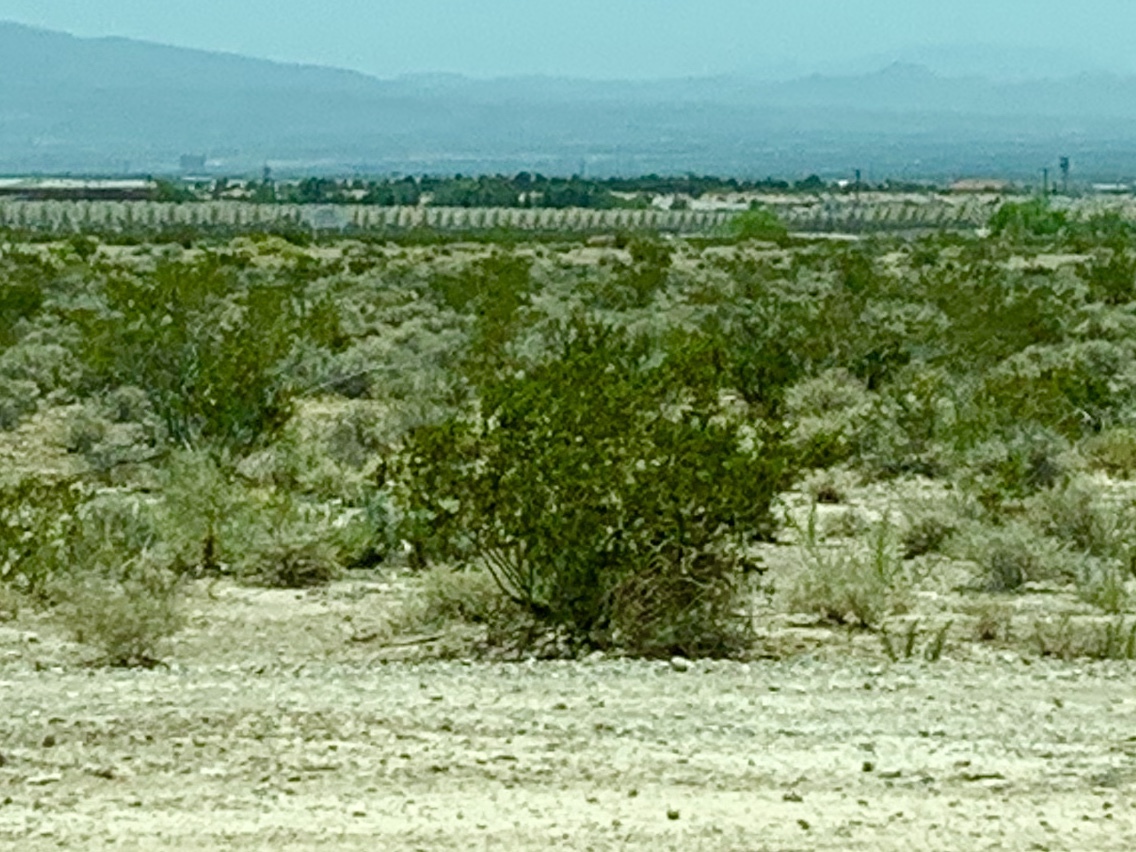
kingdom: Plantae
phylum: Tracheophyta
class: Magnoliopsida
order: Zygophyllales
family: Zygophyllaceae
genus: Larrea
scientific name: Larrea tridentata
